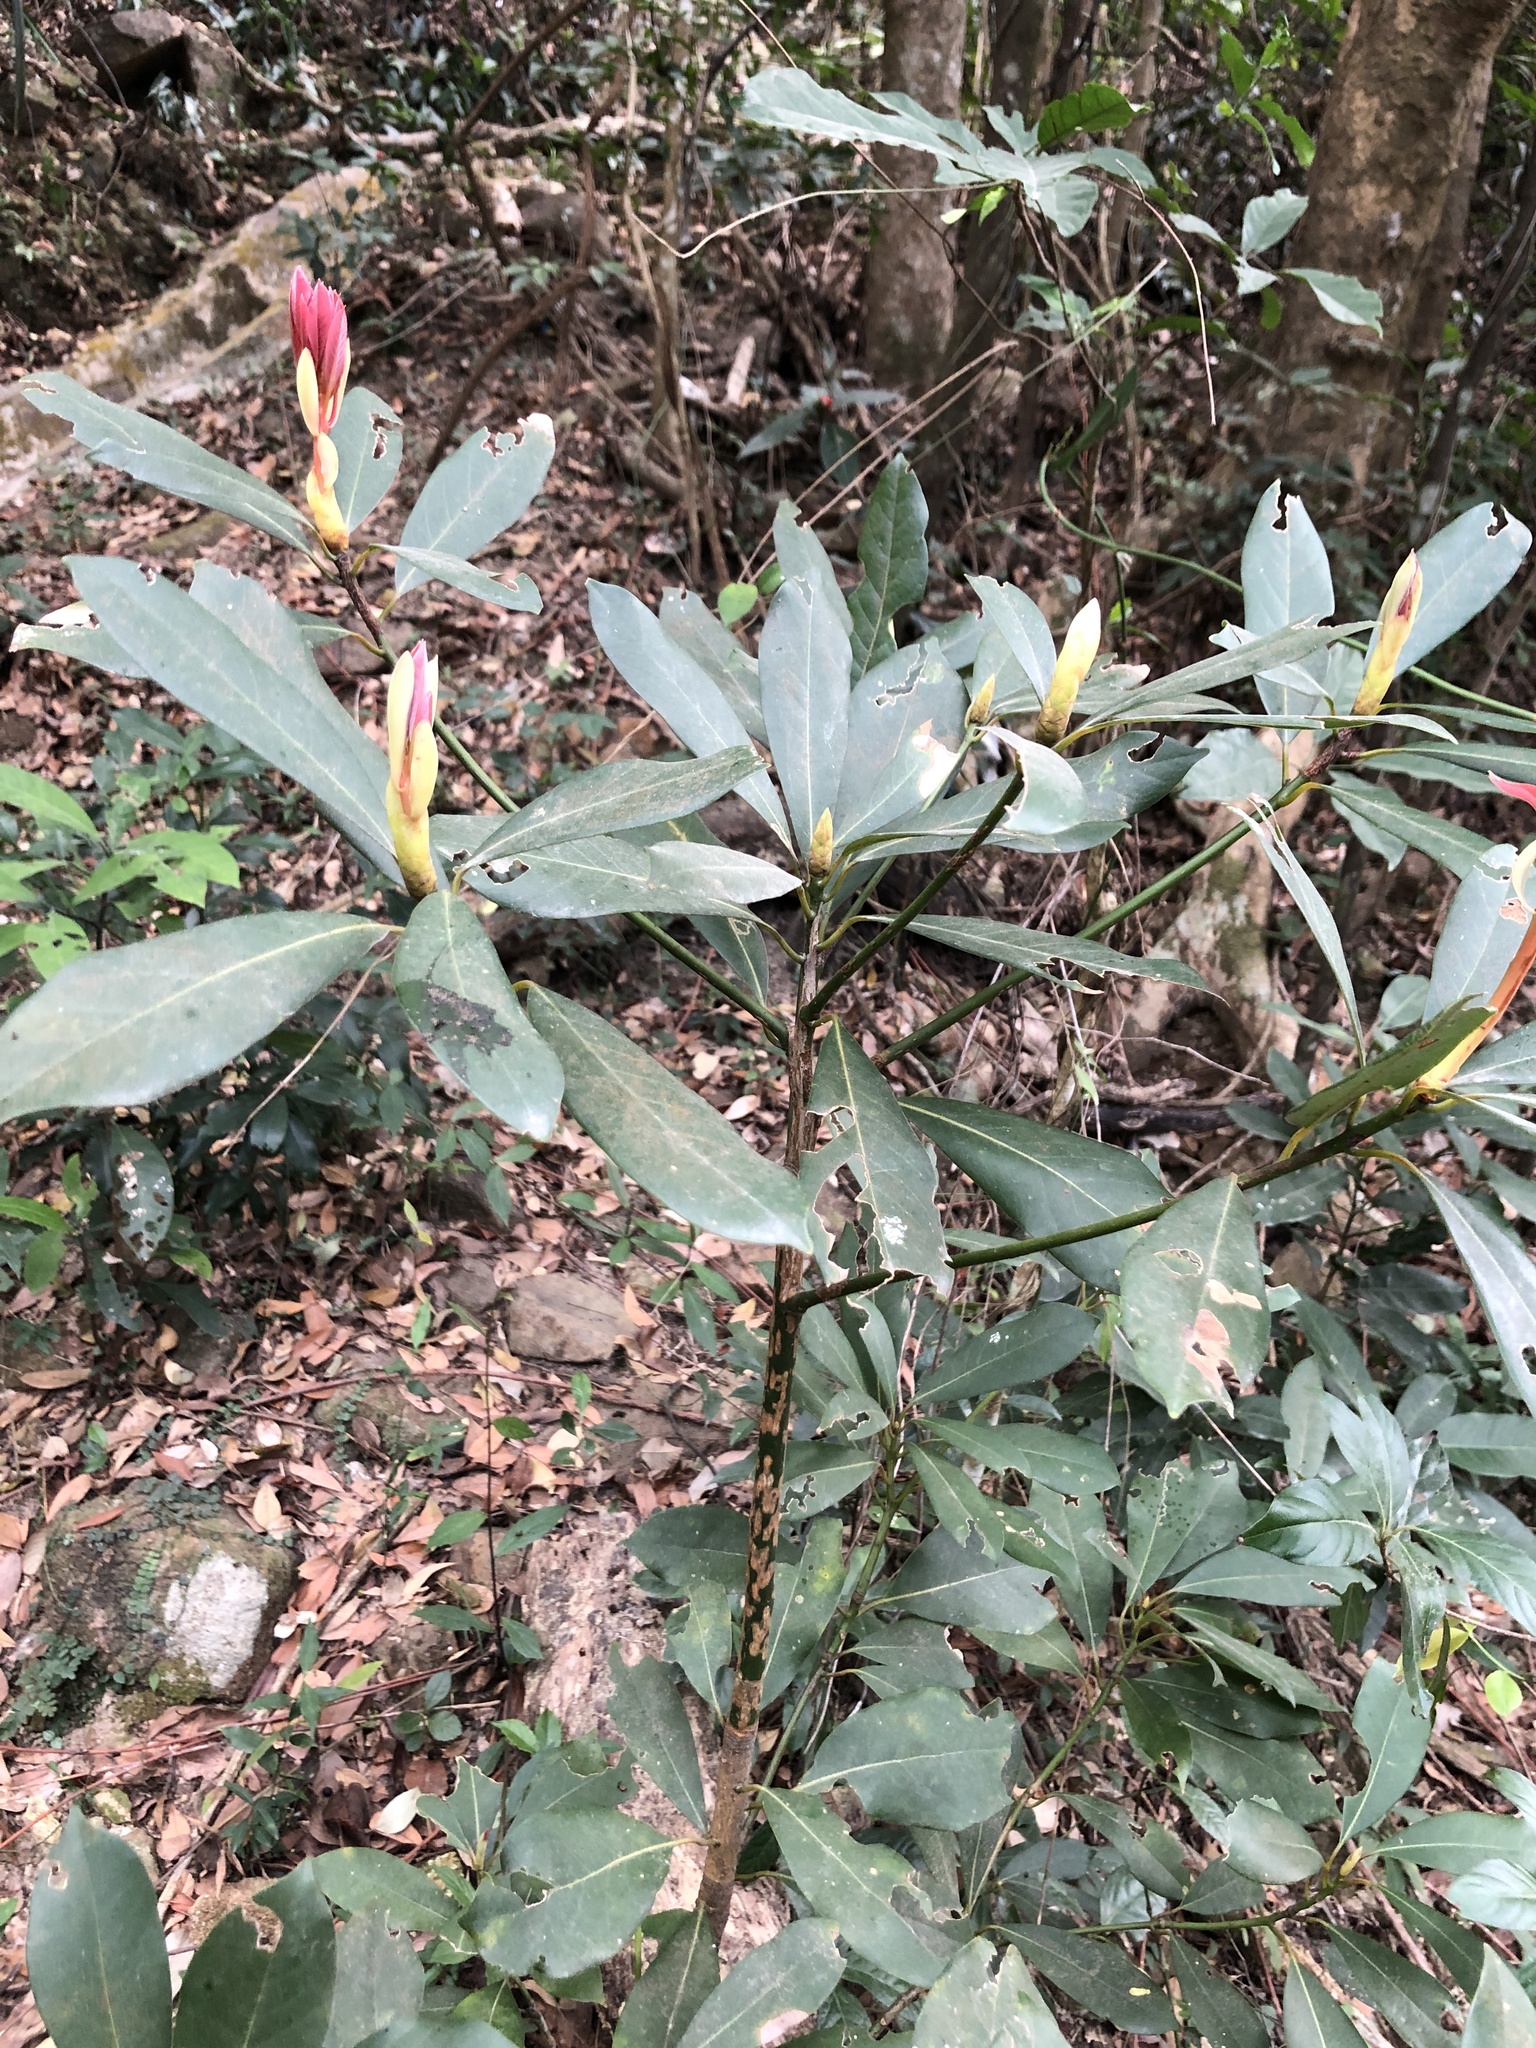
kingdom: Plantae
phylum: Tracheophyta
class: Magnoliopsida
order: Laurales
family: Lauraceae
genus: Machilus
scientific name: Machilus chekiangensis
